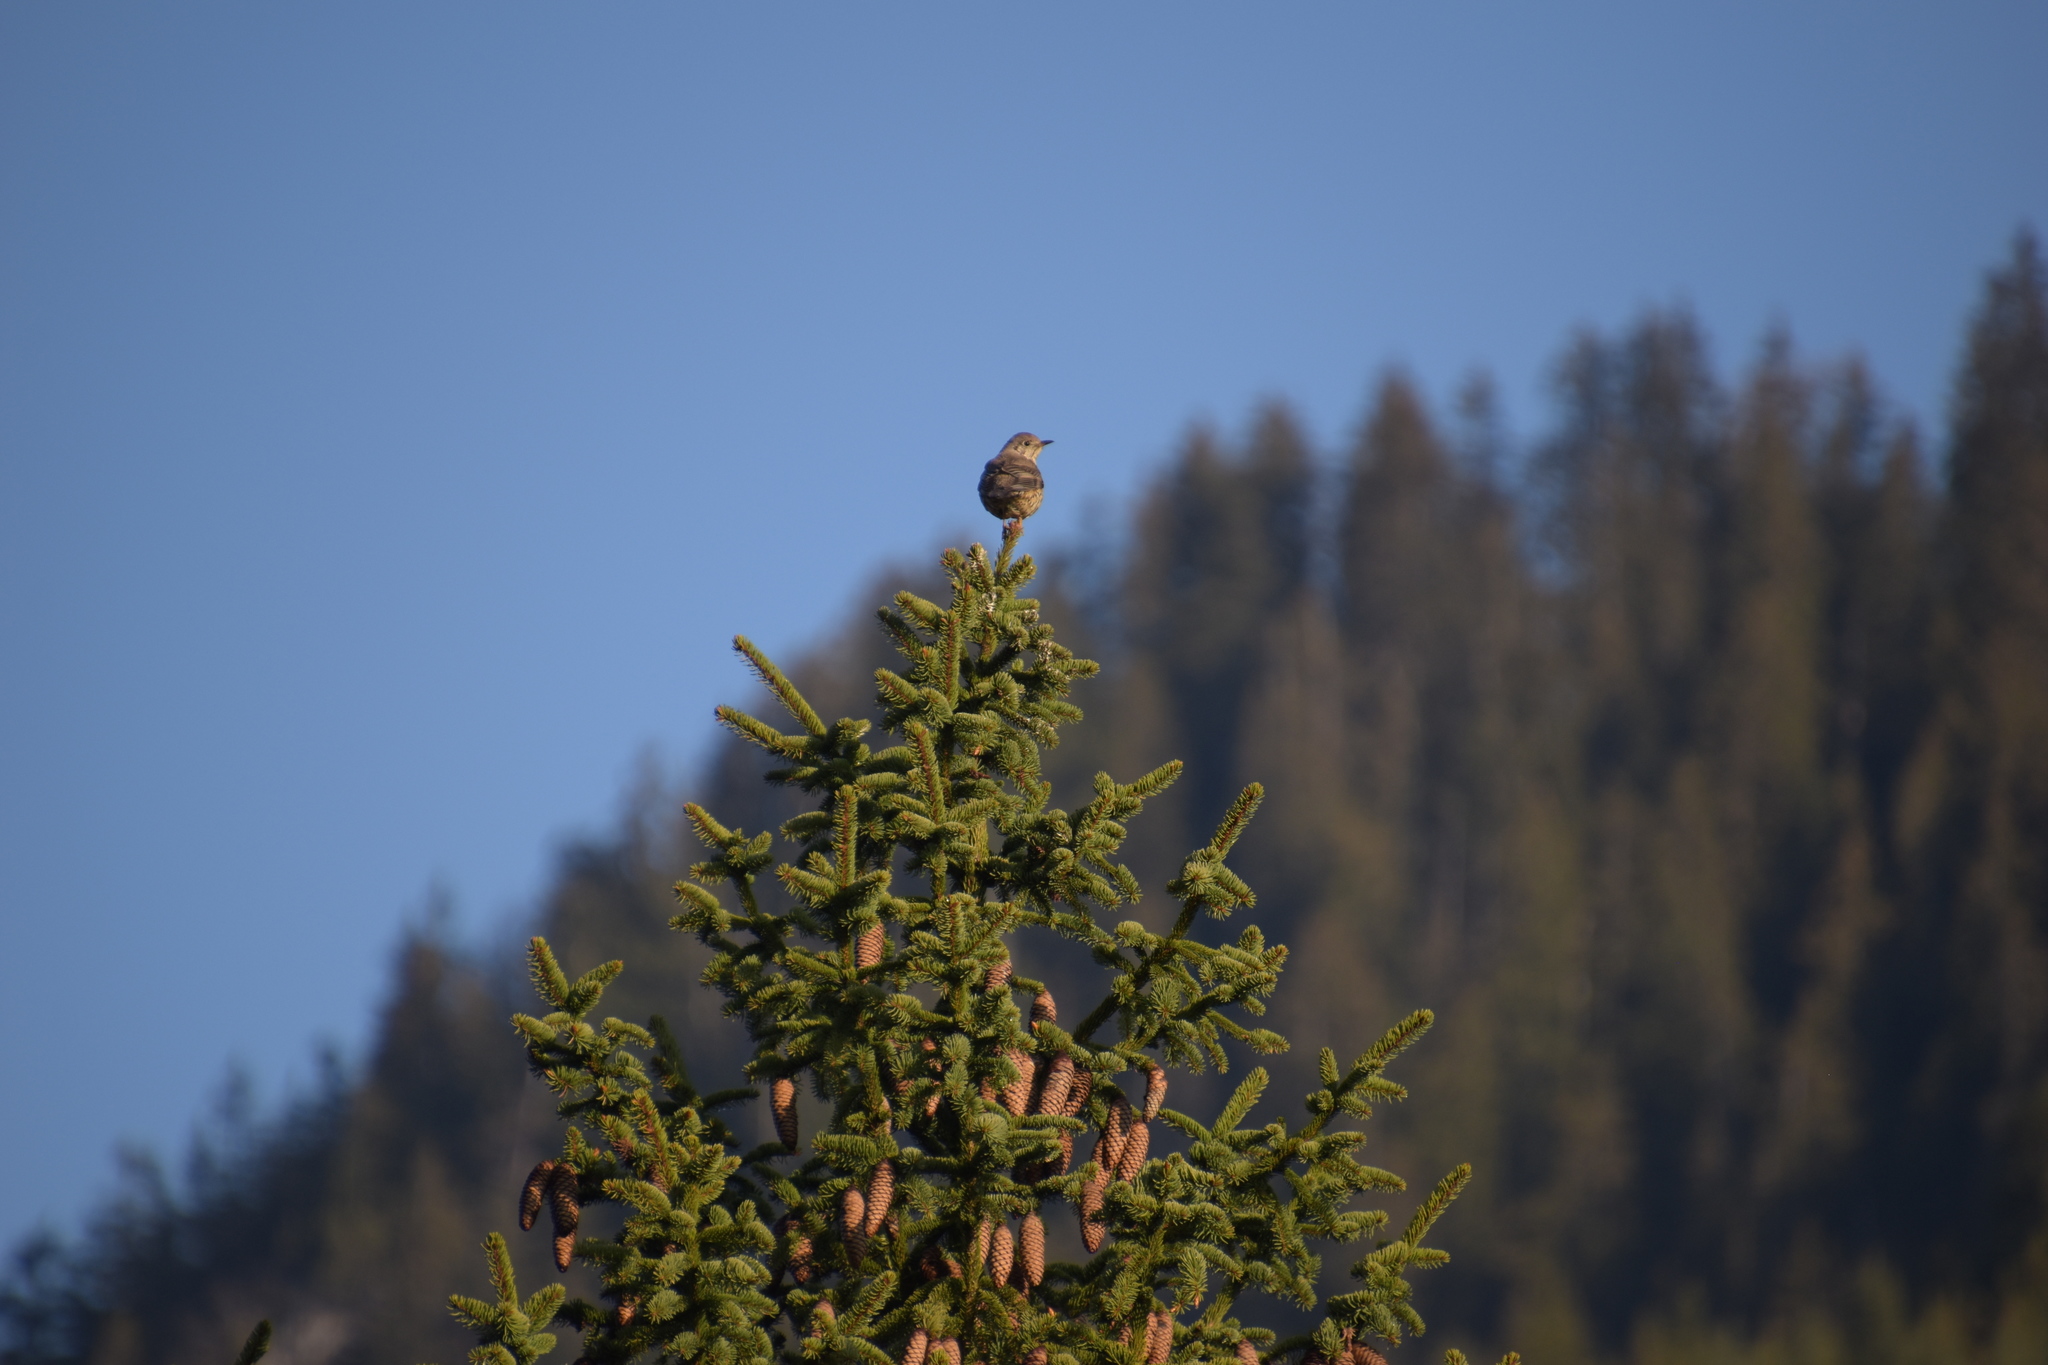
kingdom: Animalia
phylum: Chordata
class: Aves
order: Passeriformes
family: Turdidae
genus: Turdus
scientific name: Turdus viscivorus
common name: Mistle thrush
